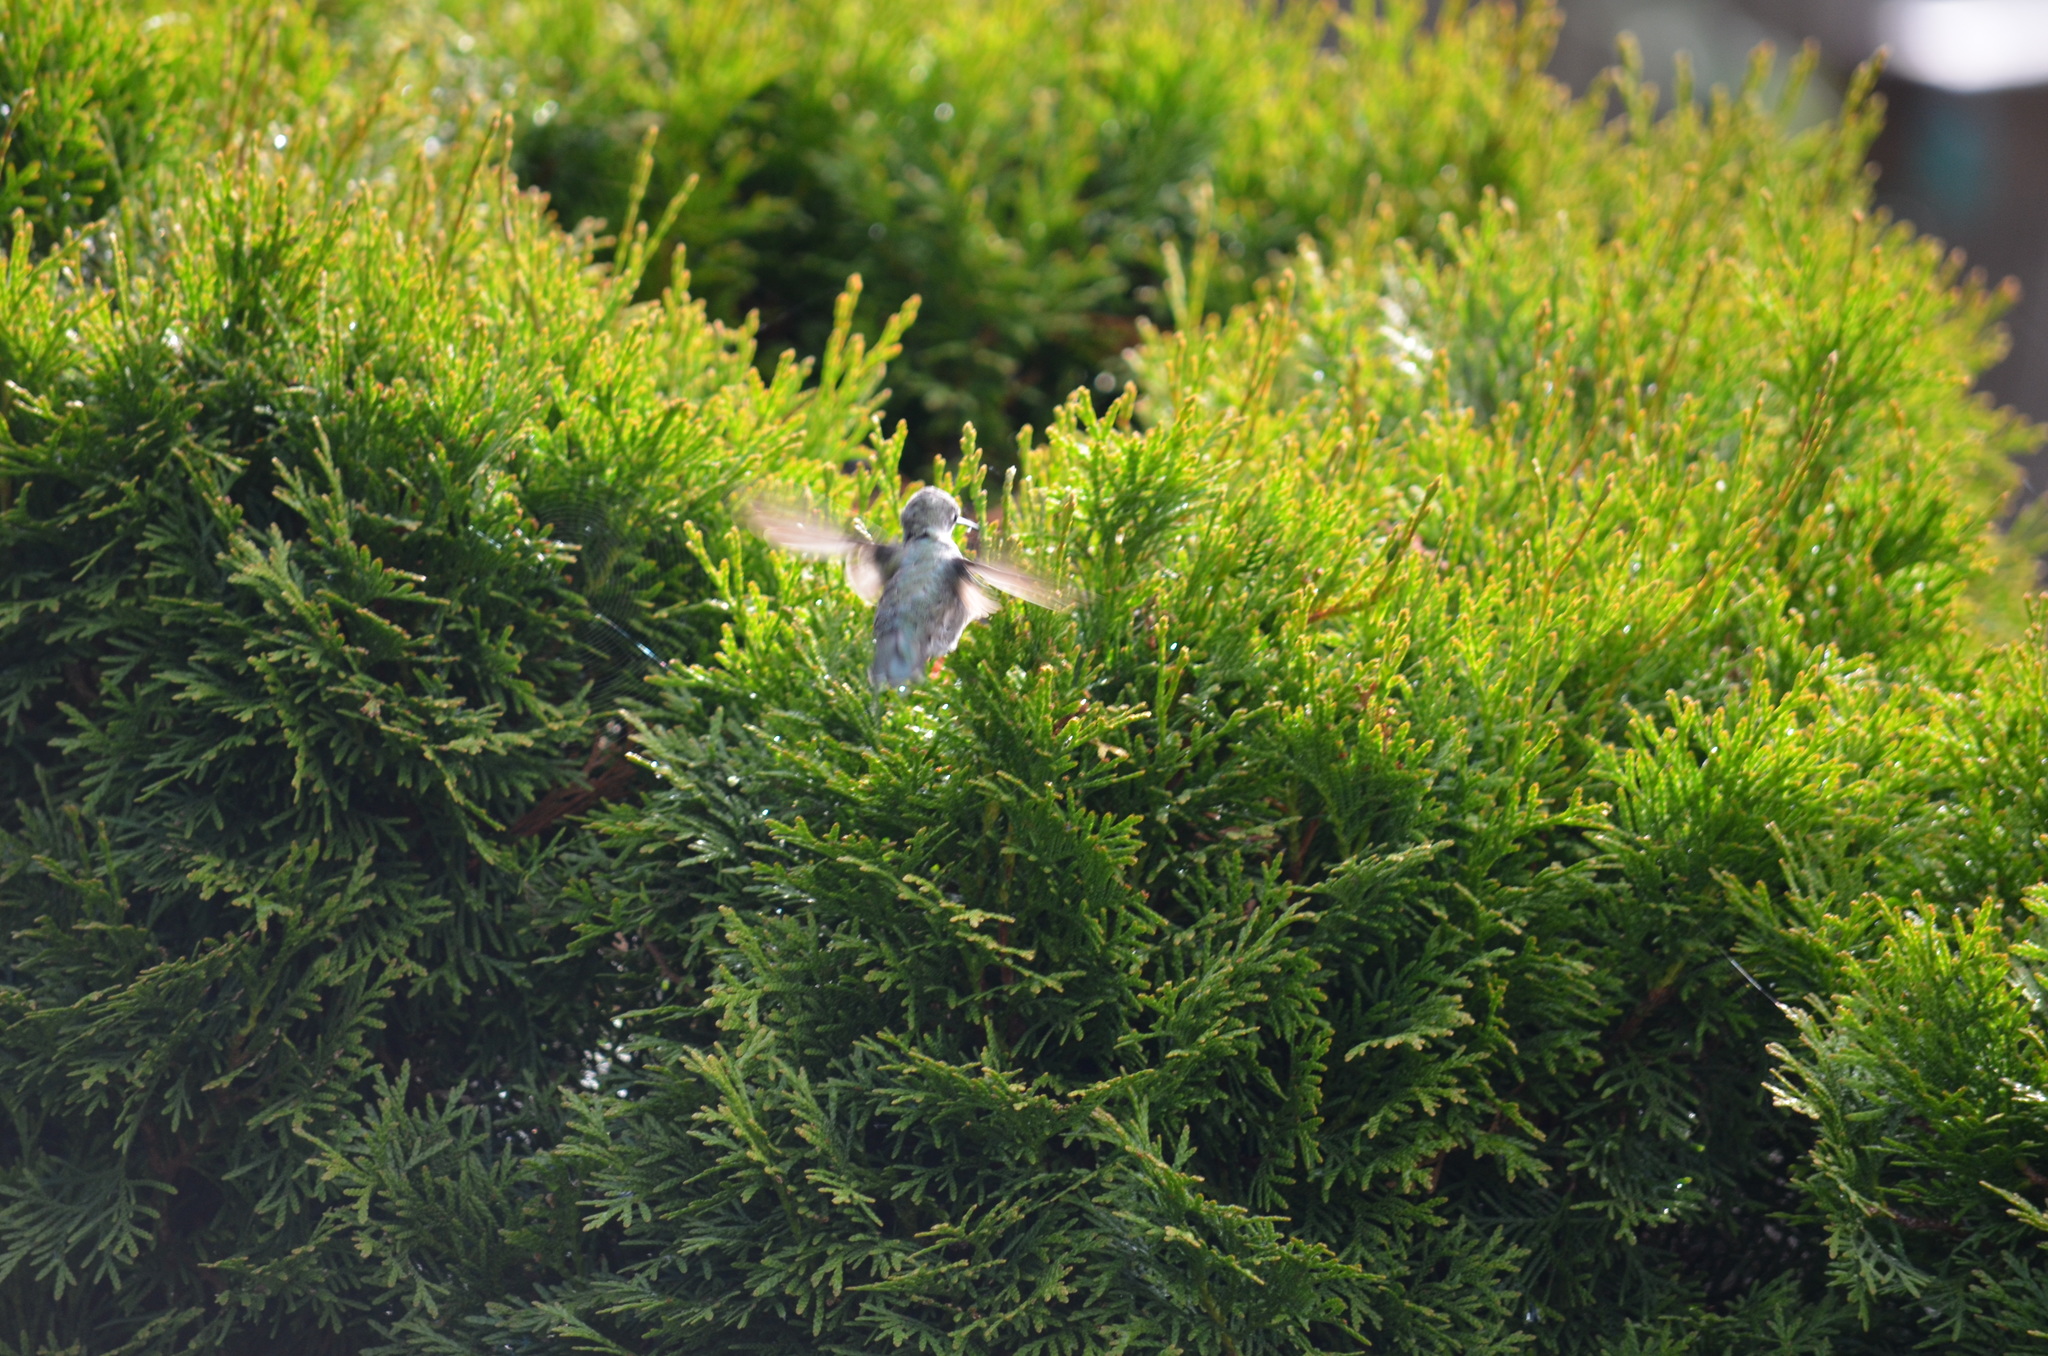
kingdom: Animalia
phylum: Chordata
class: Aves
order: Apodiformes
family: Trochilidae
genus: Calypte
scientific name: Calypte anna
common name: Anna's hummingbird
